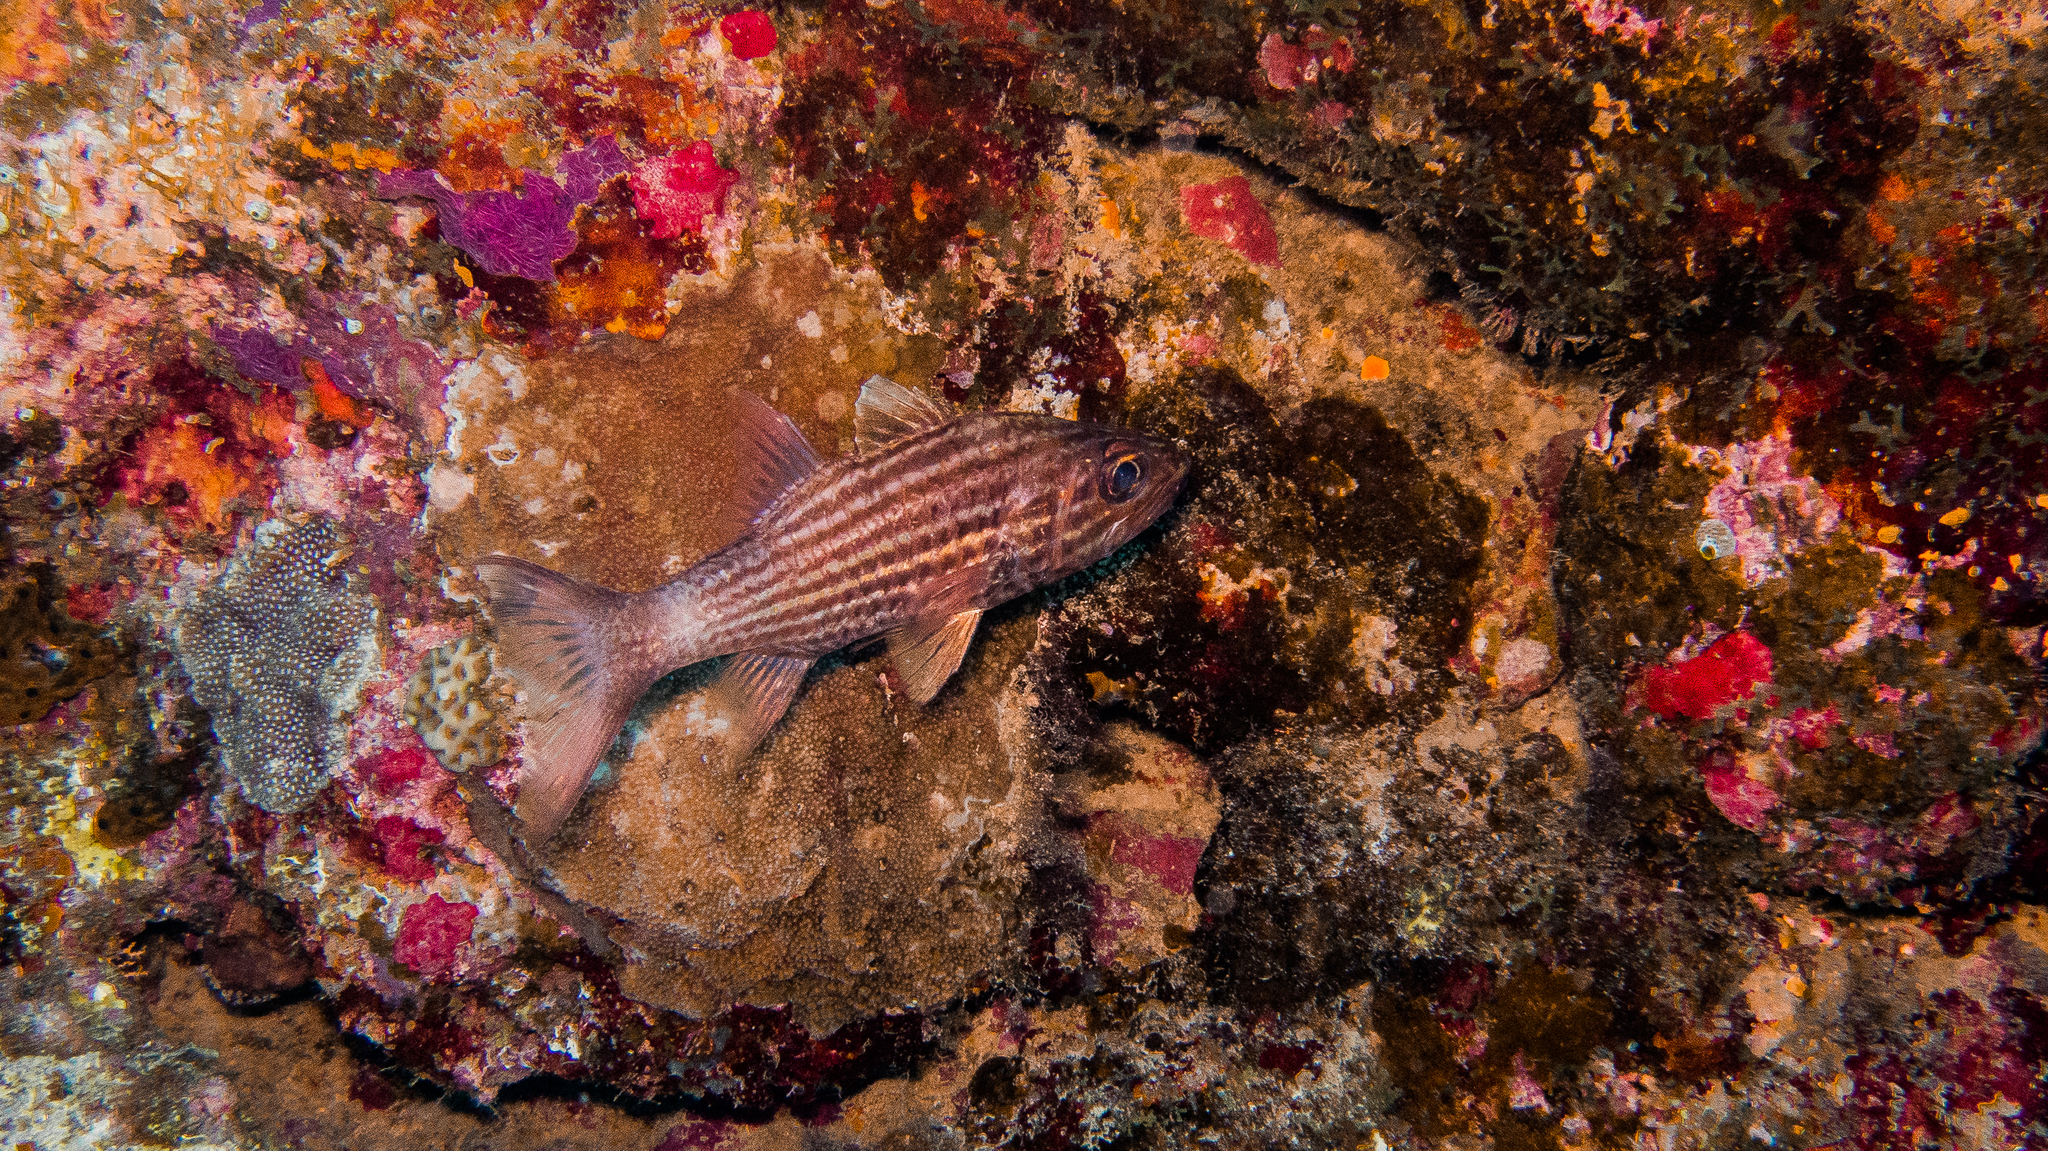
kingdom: Animalia
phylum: Chordata
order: Perciformes
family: Apogonidae
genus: Cheilodipterus
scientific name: Cheilodipterus macrodon
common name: Eight-lined cardinalfish
